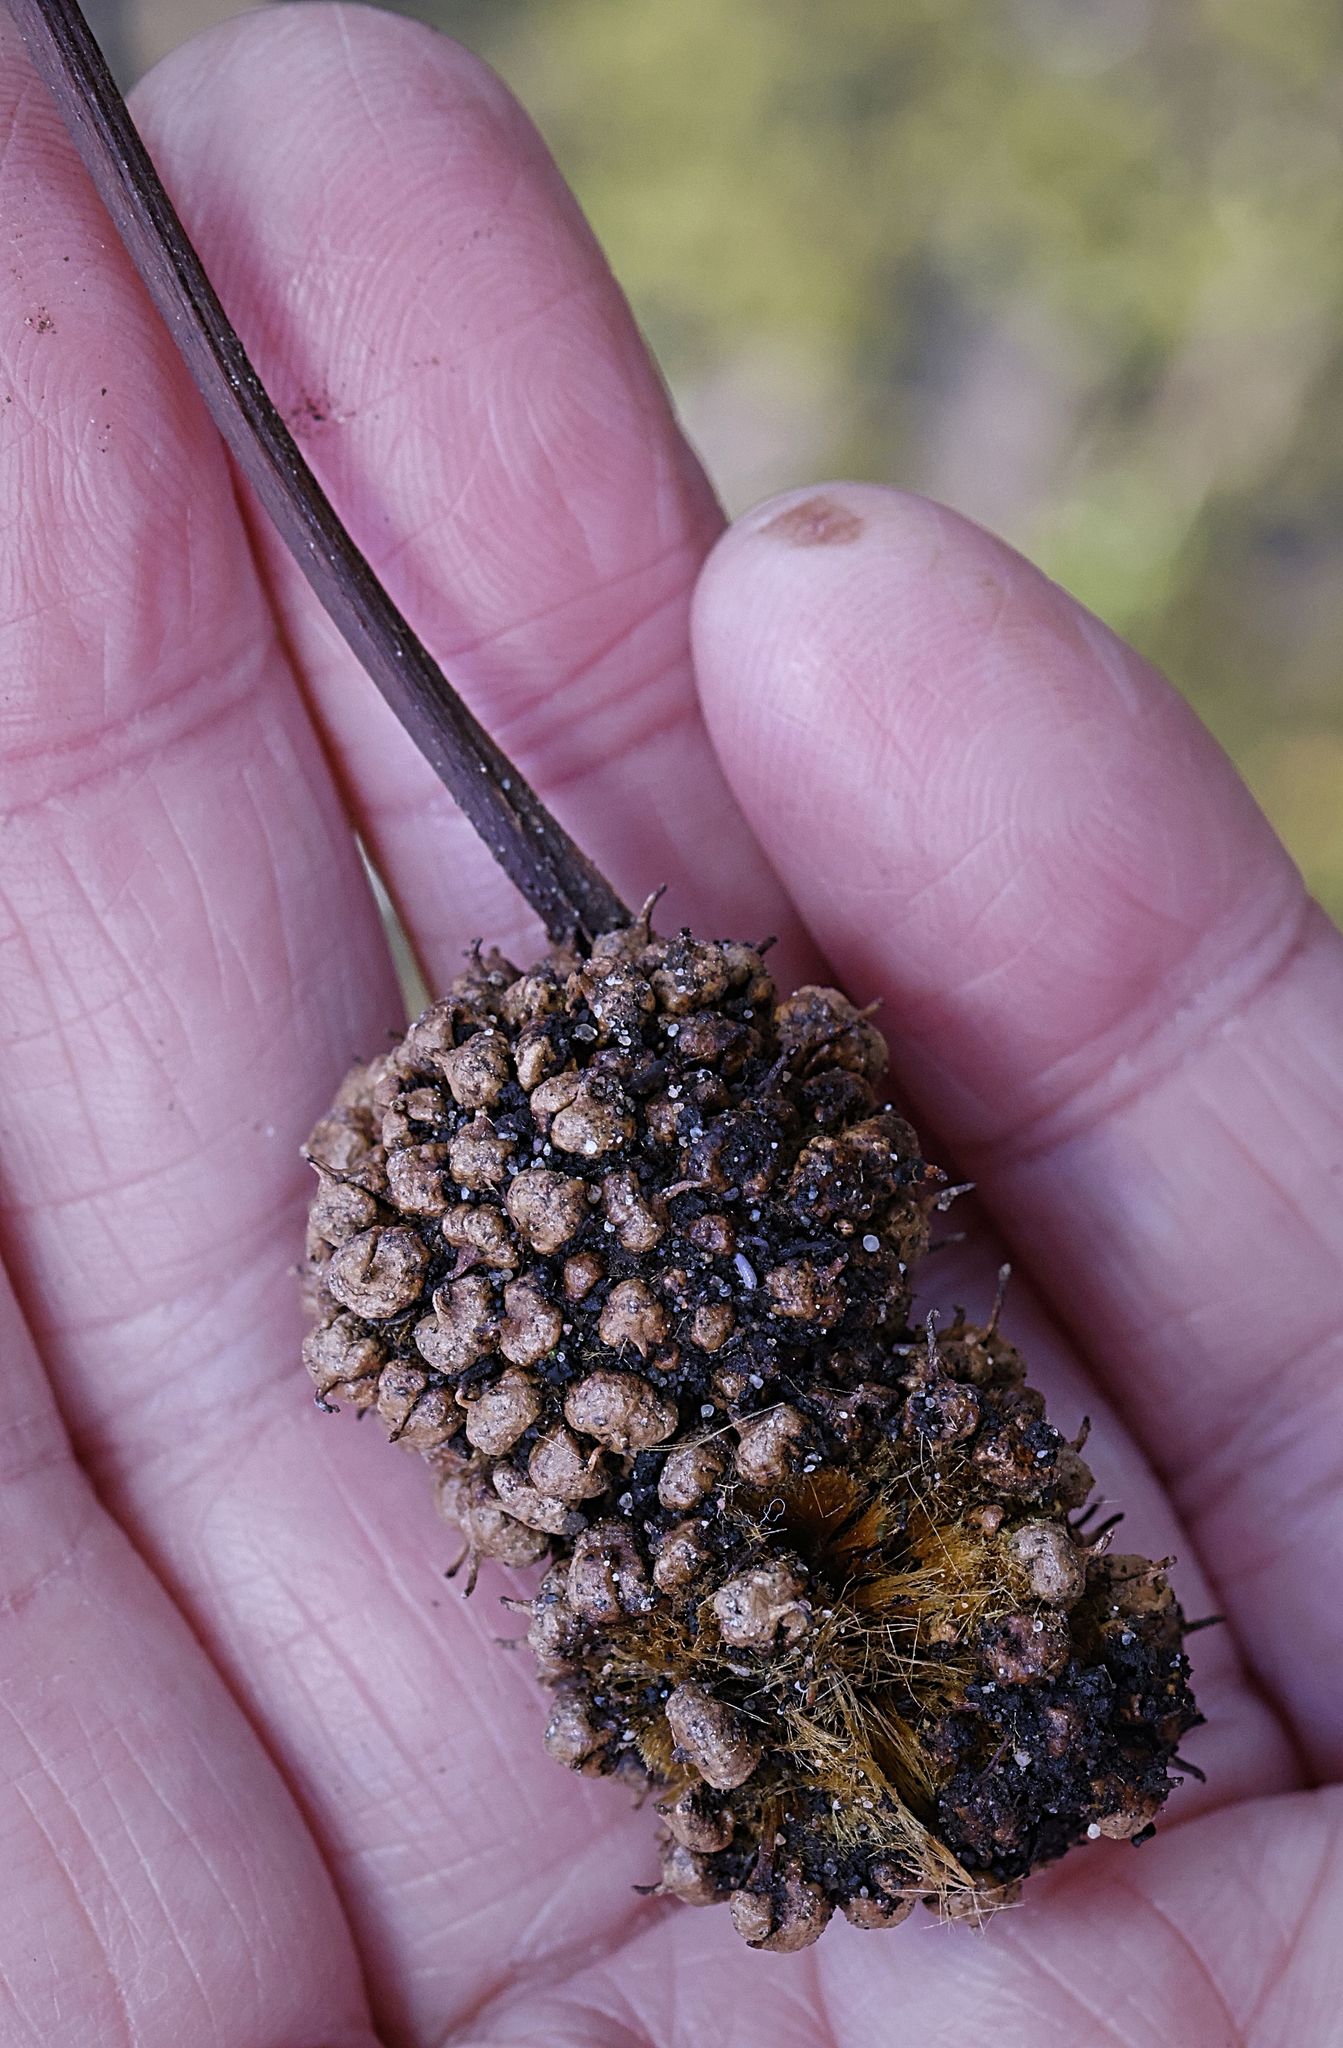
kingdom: Plantae
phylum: Tracheophyta
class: Magnoliopsida
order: Proteales
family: Platanaceae
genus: Platanus
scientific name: Platanus hispanica
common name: London plane
